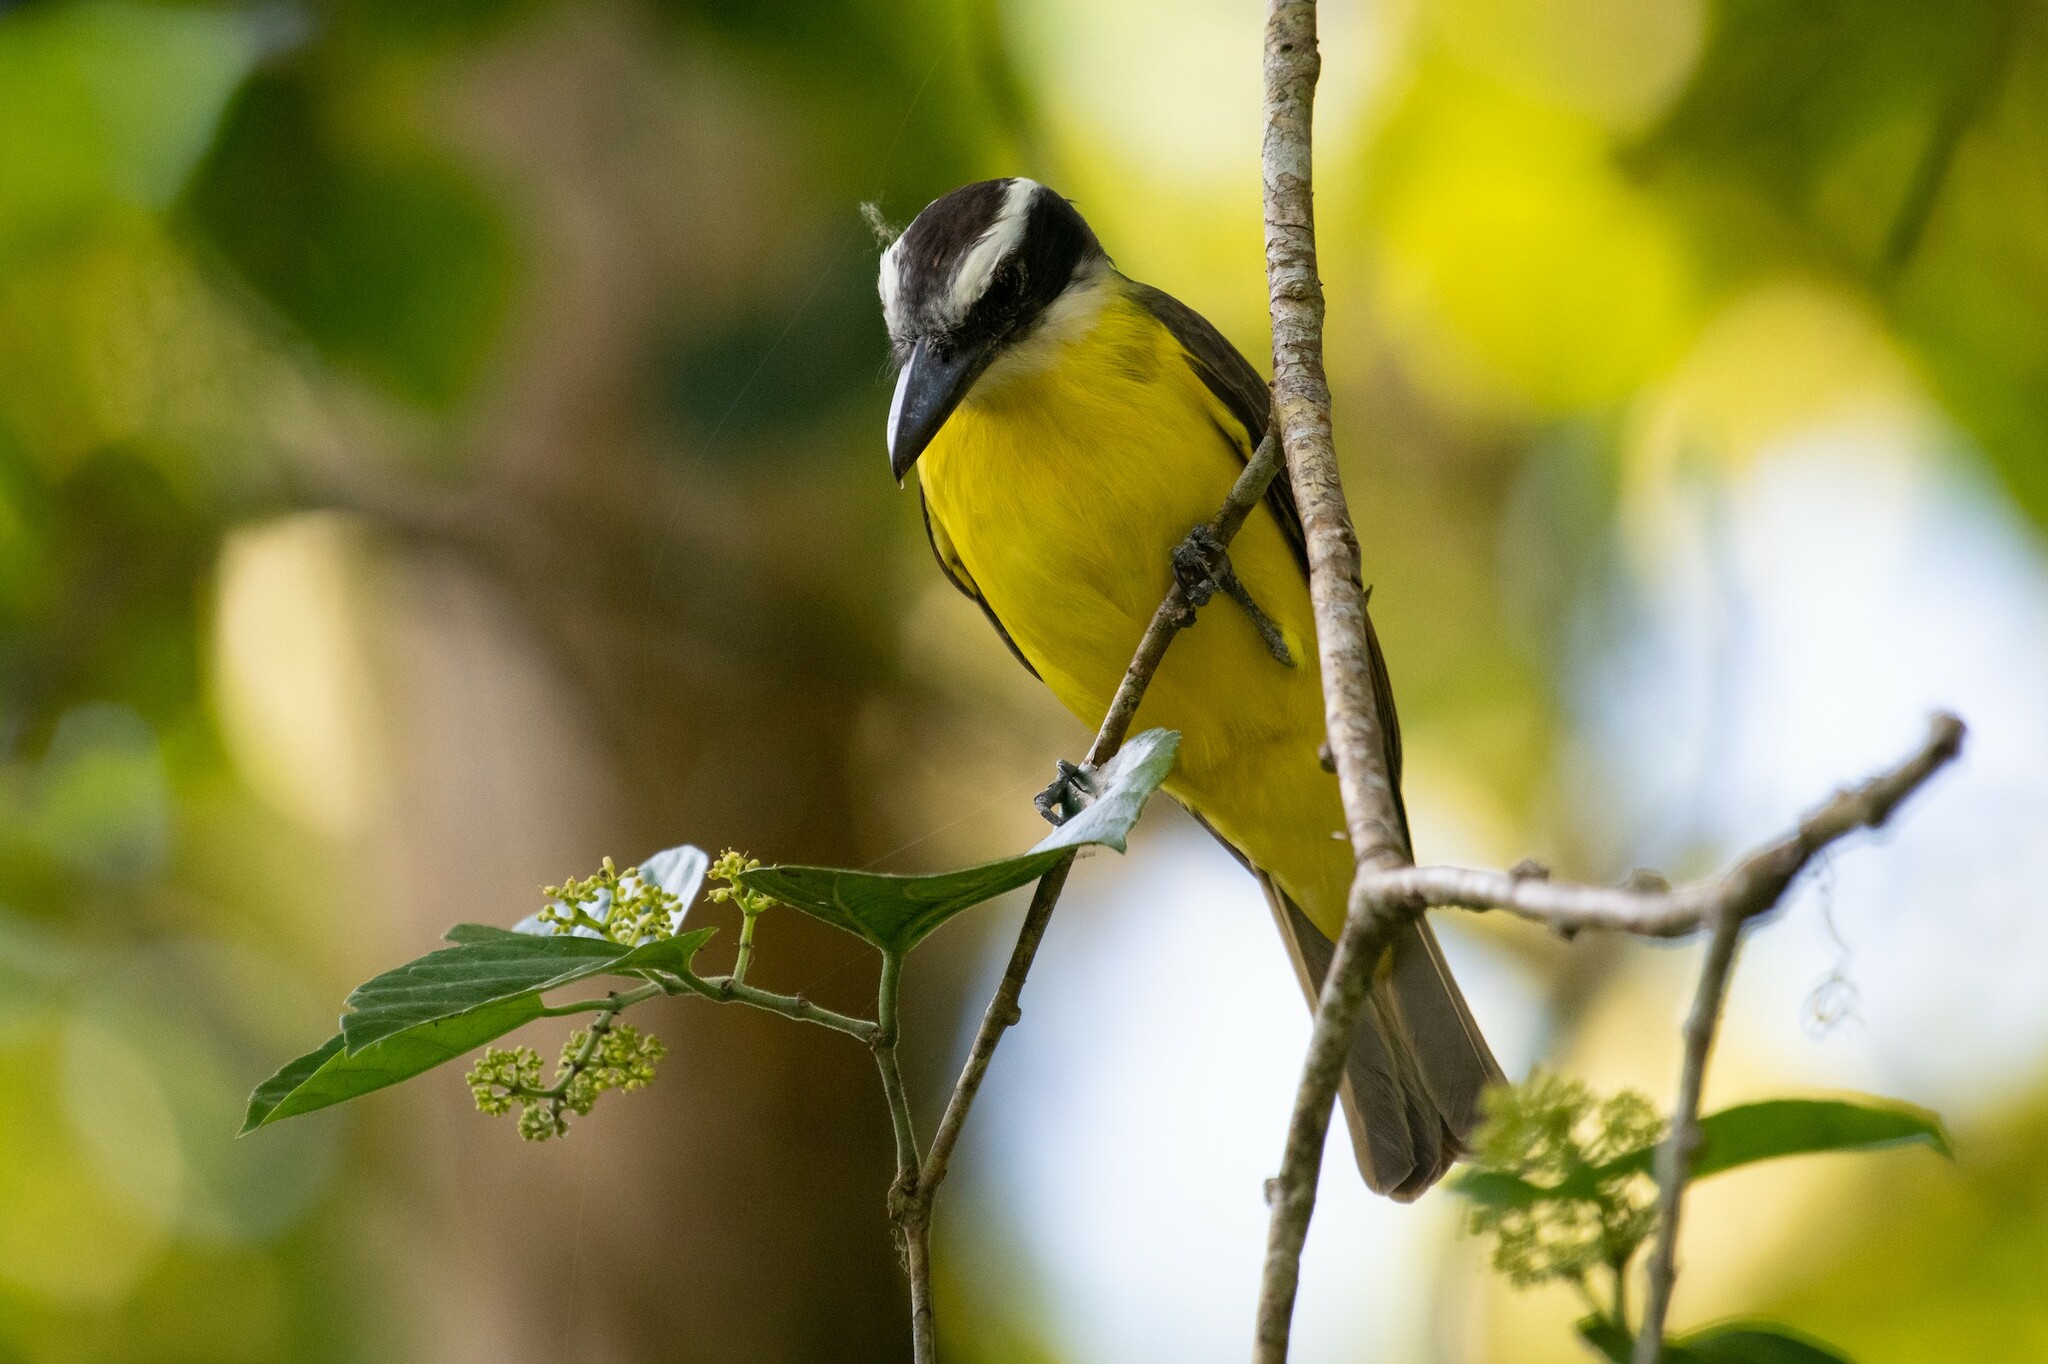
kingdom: Animalia
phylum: Chordata
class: Aves
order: Passeriformes
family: Tyrannidae
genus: Megarynchus
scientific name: Megarynchus pitangua
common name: Boat-billed flycatcher
